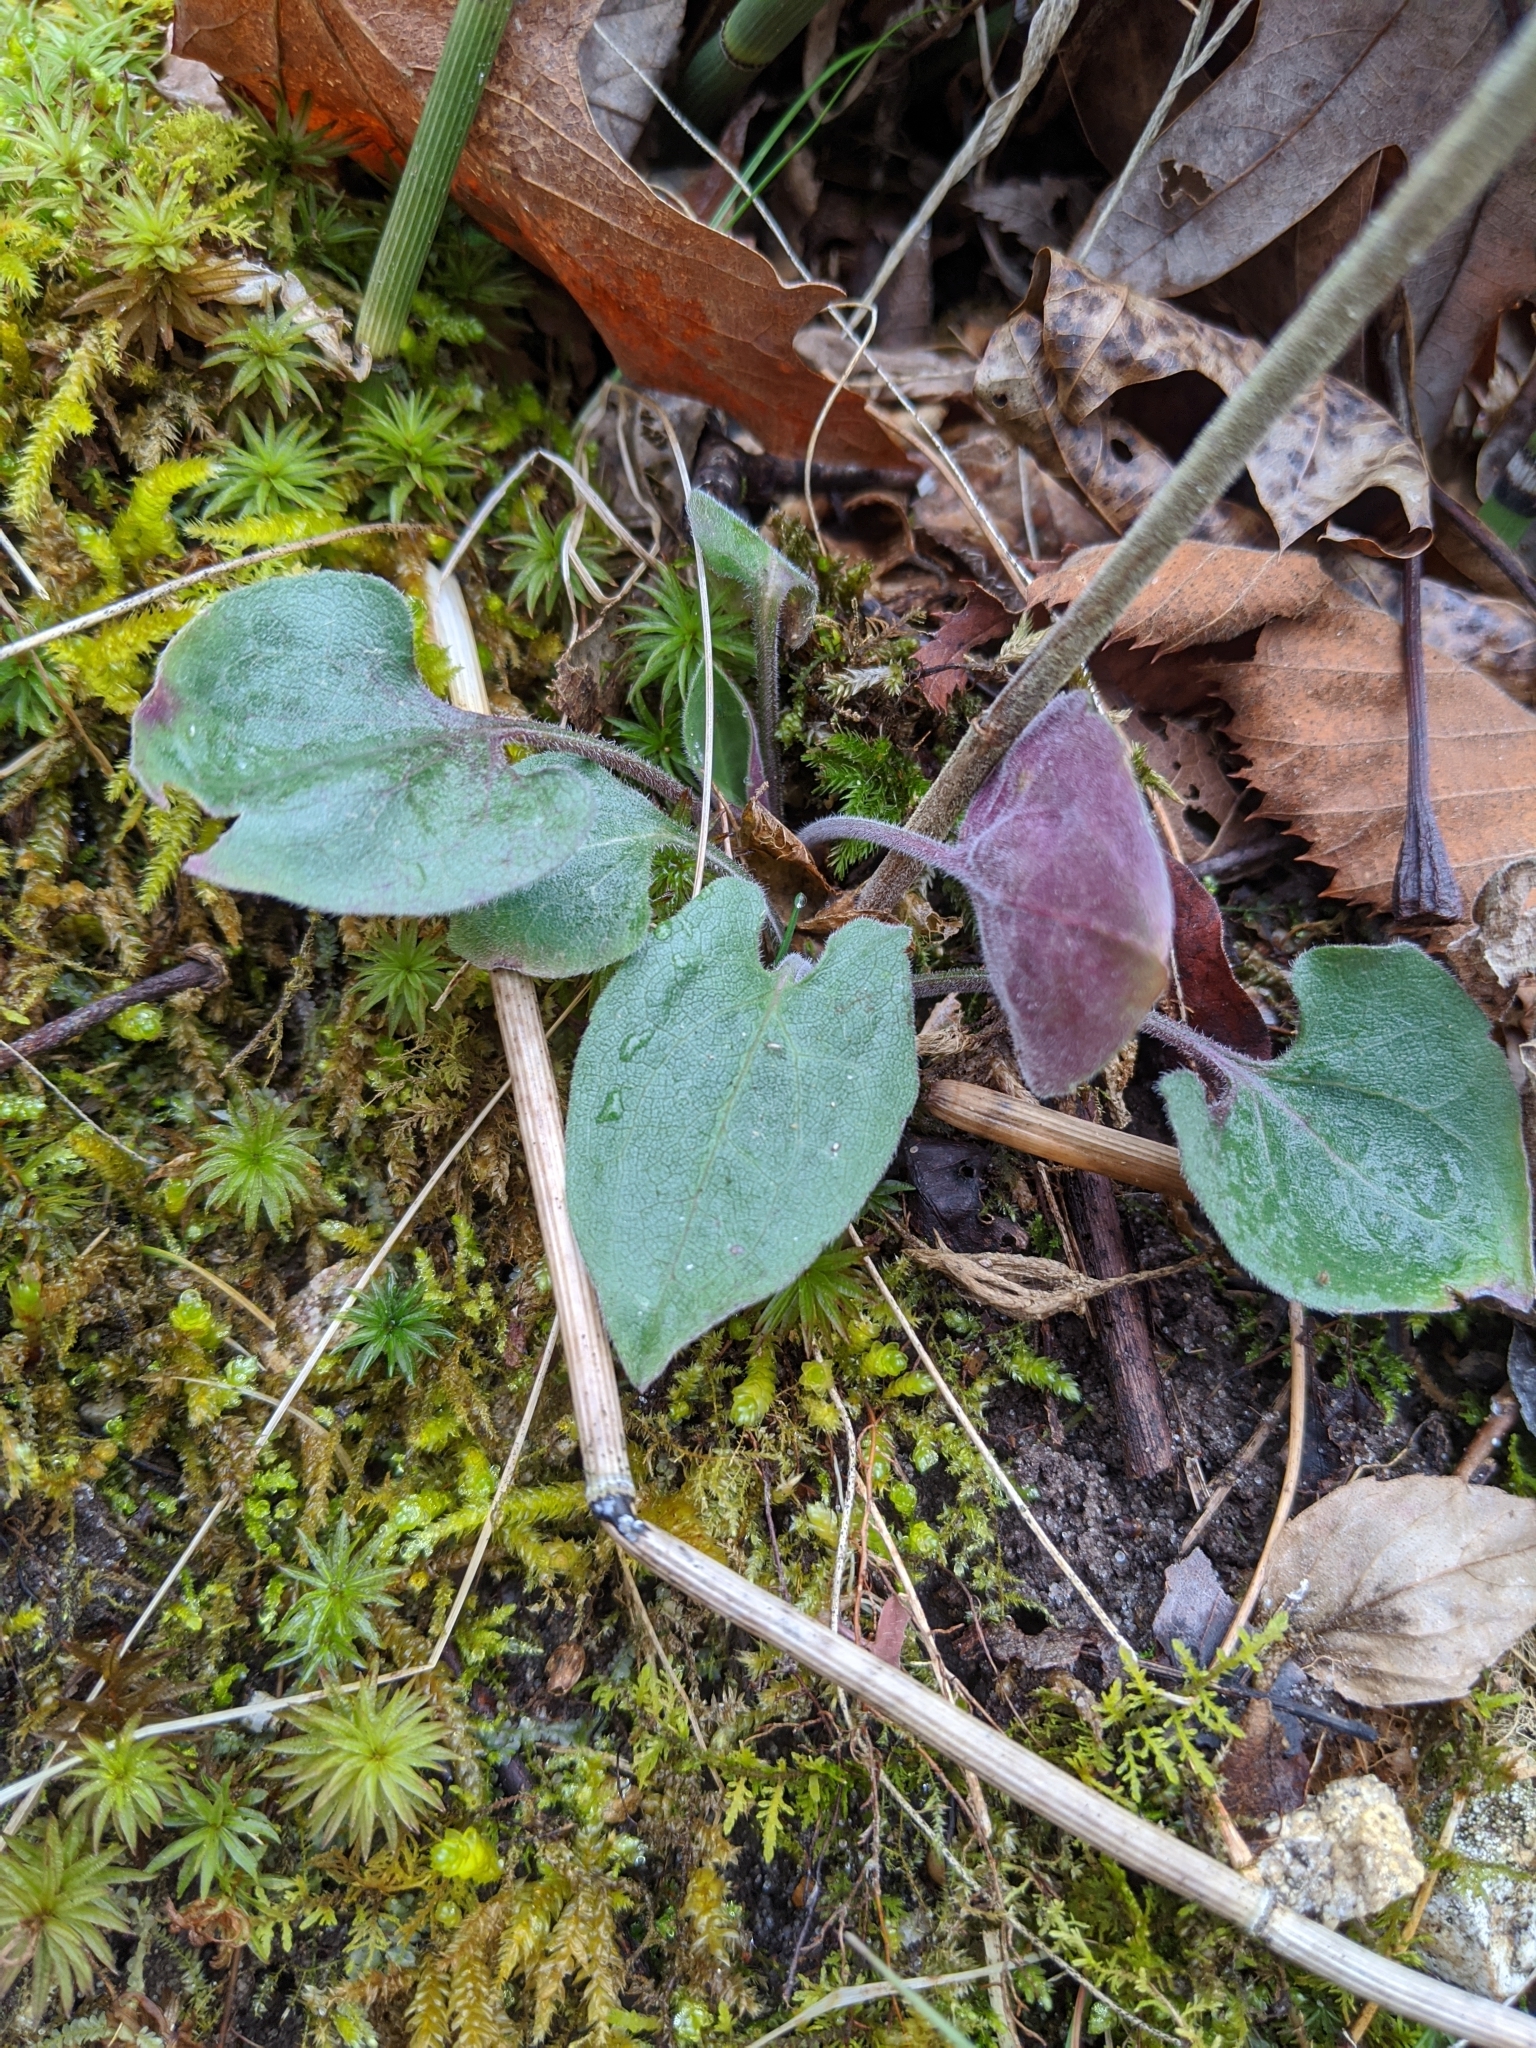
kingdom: Plantae
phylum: Tracheophyta
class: Magnoliopsida
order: Asterales
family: Asteraceae
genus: Symphyotrichum
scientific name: Symphyotrichum anomalum
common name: Many-ray aster
